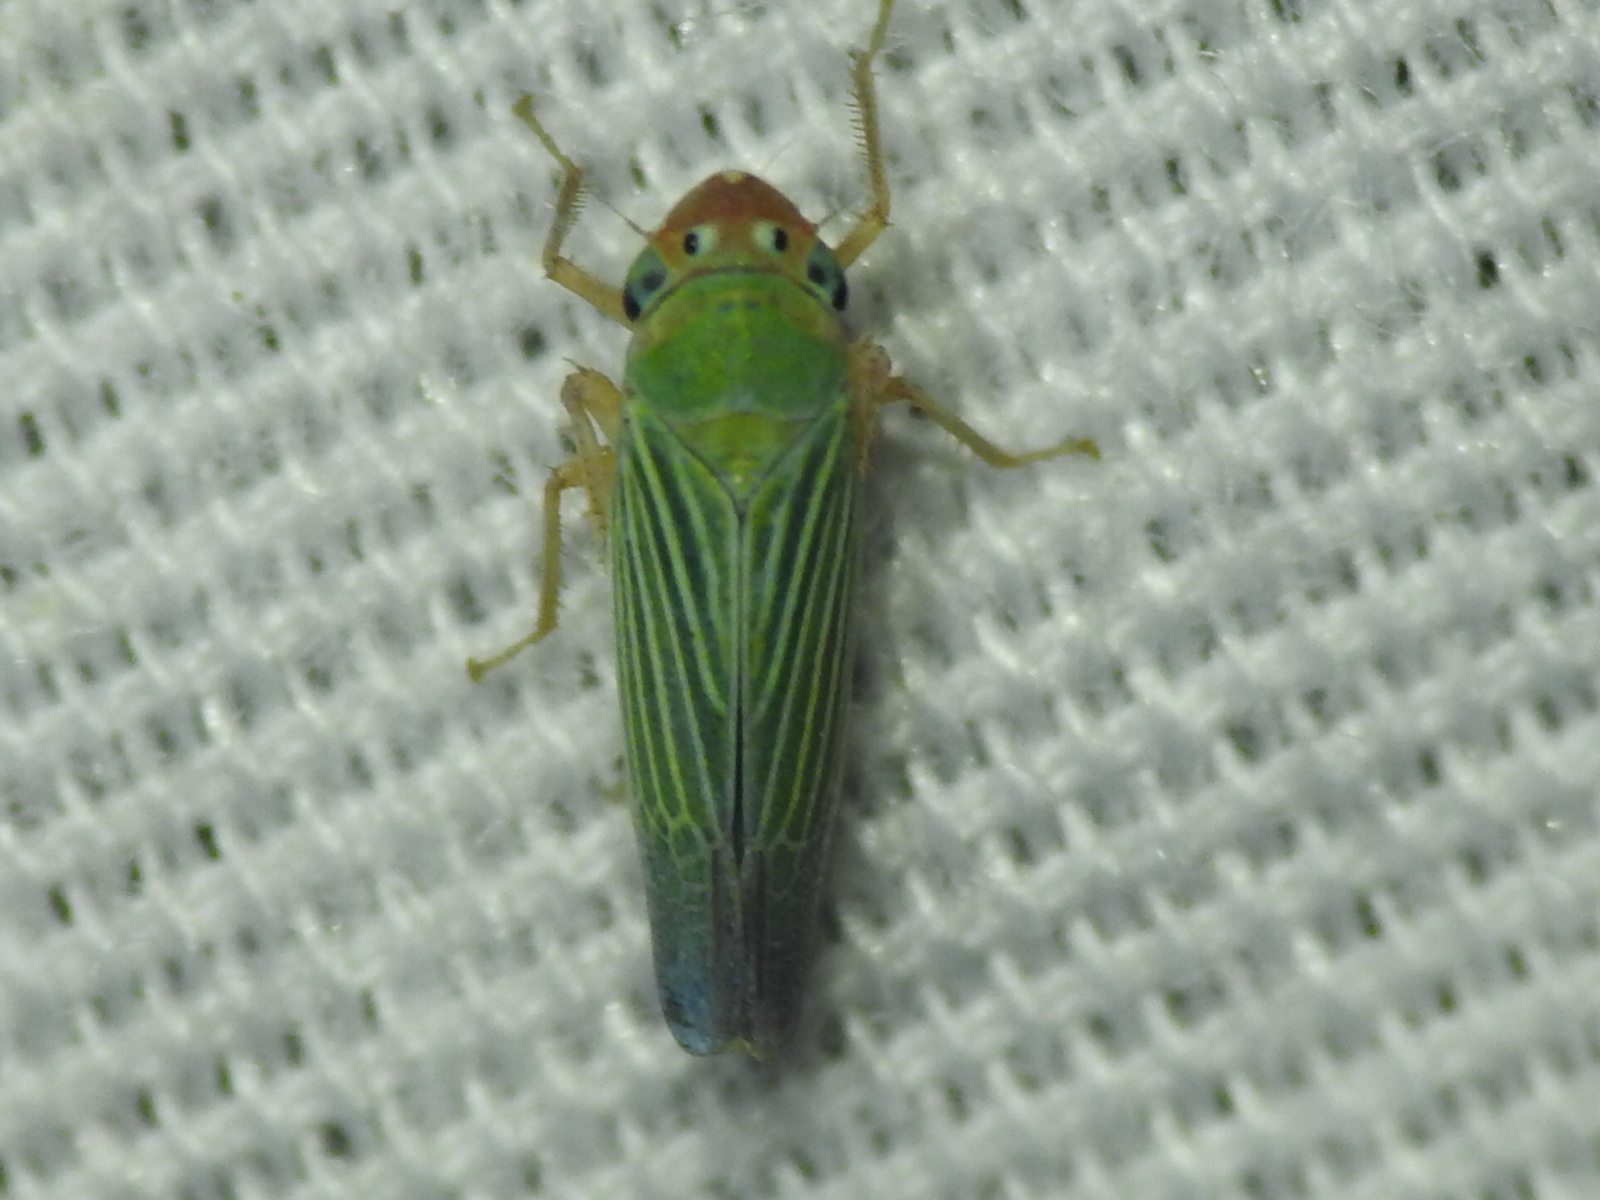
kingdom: Animalia
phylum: Arthropoda
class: Insecta
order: Hemiptera
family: Cicadellidae
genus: Xyphon
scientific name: Xyphon flaviceps
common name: Yellowheaded leafhopper
